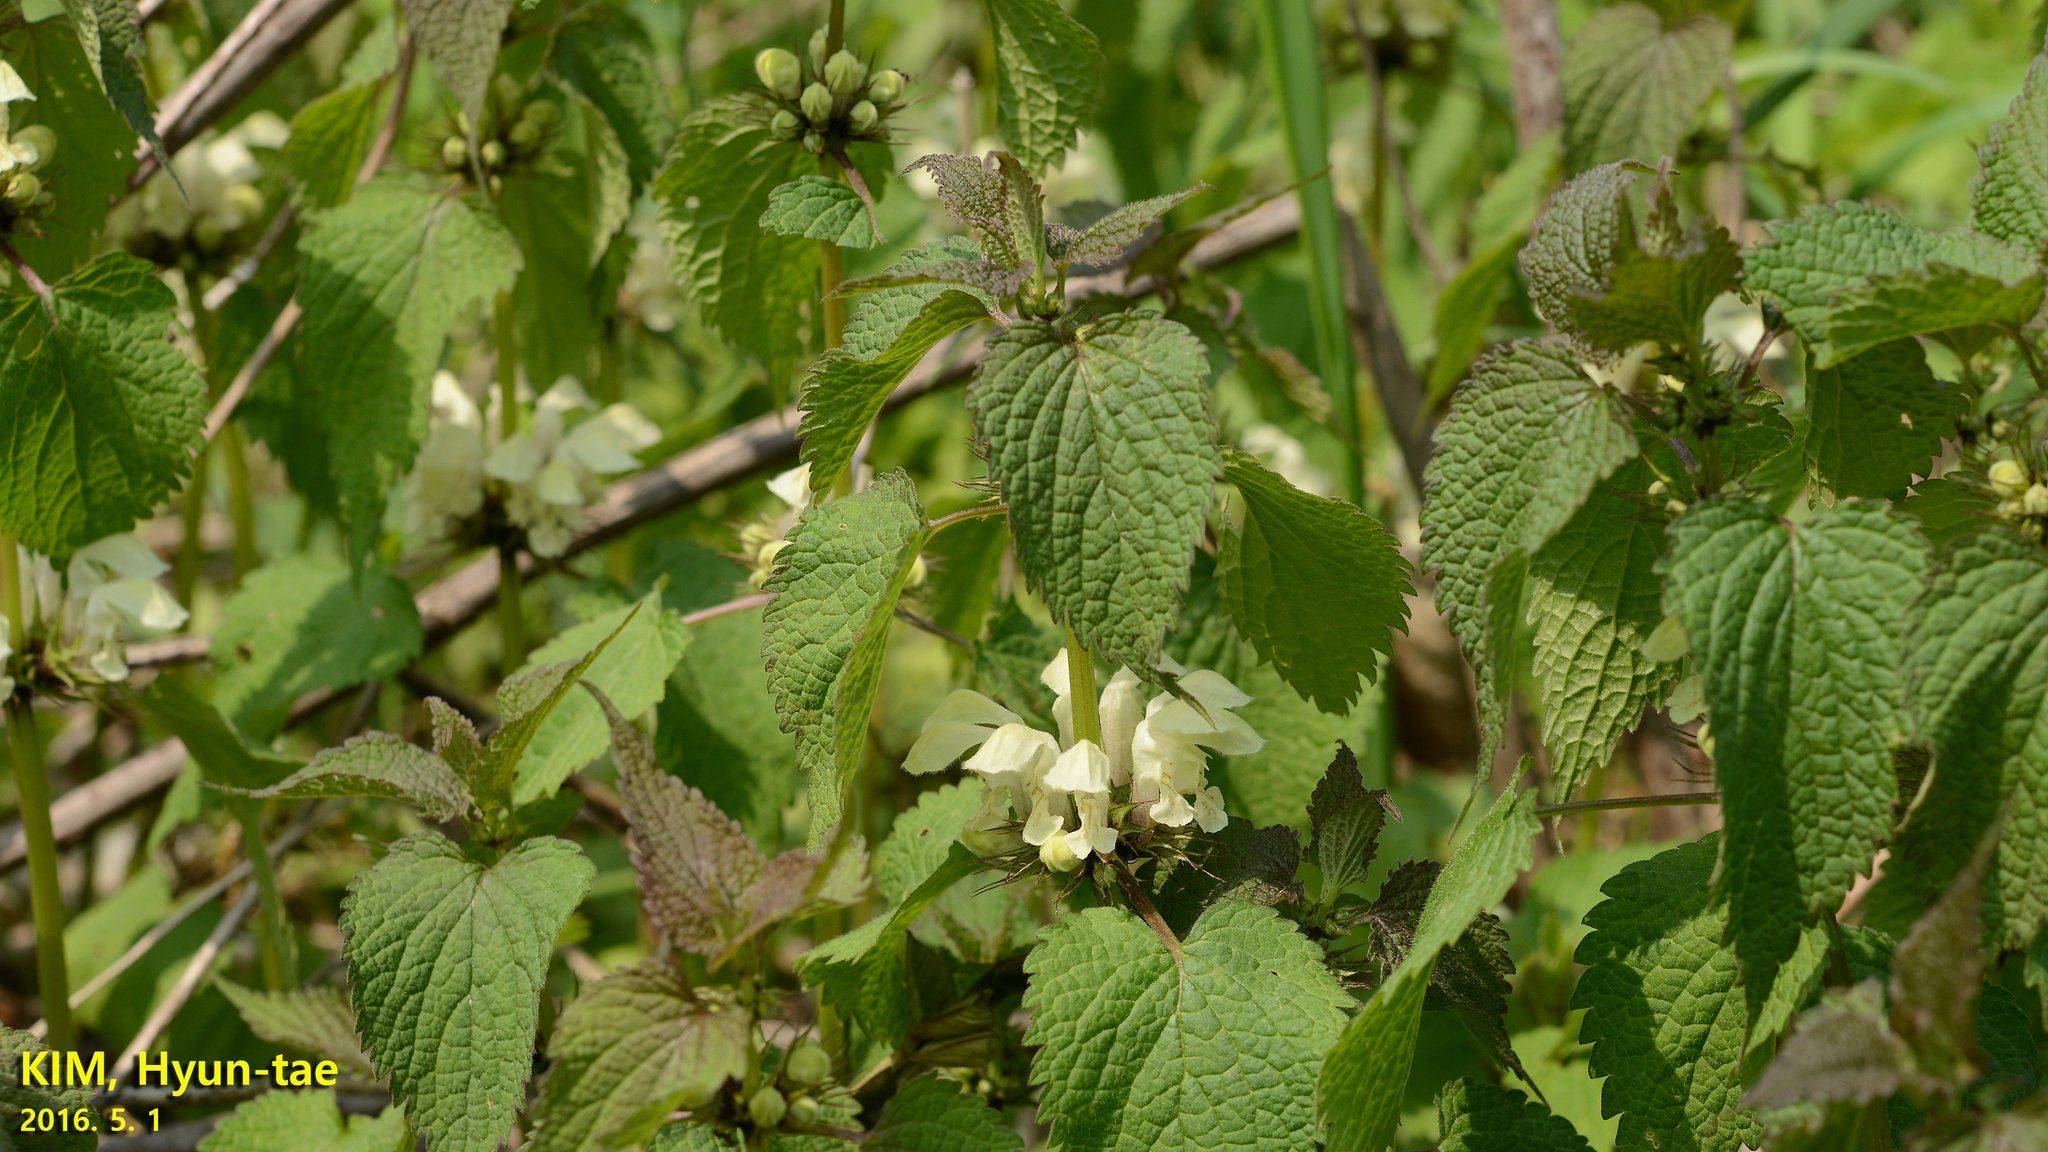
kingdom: Plantae
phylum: Tracheophyta
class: Magnoliopsida
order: Lamiales
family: Lamiaceae
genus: Lamium
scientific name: Lamium album
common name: White dead-nettle
